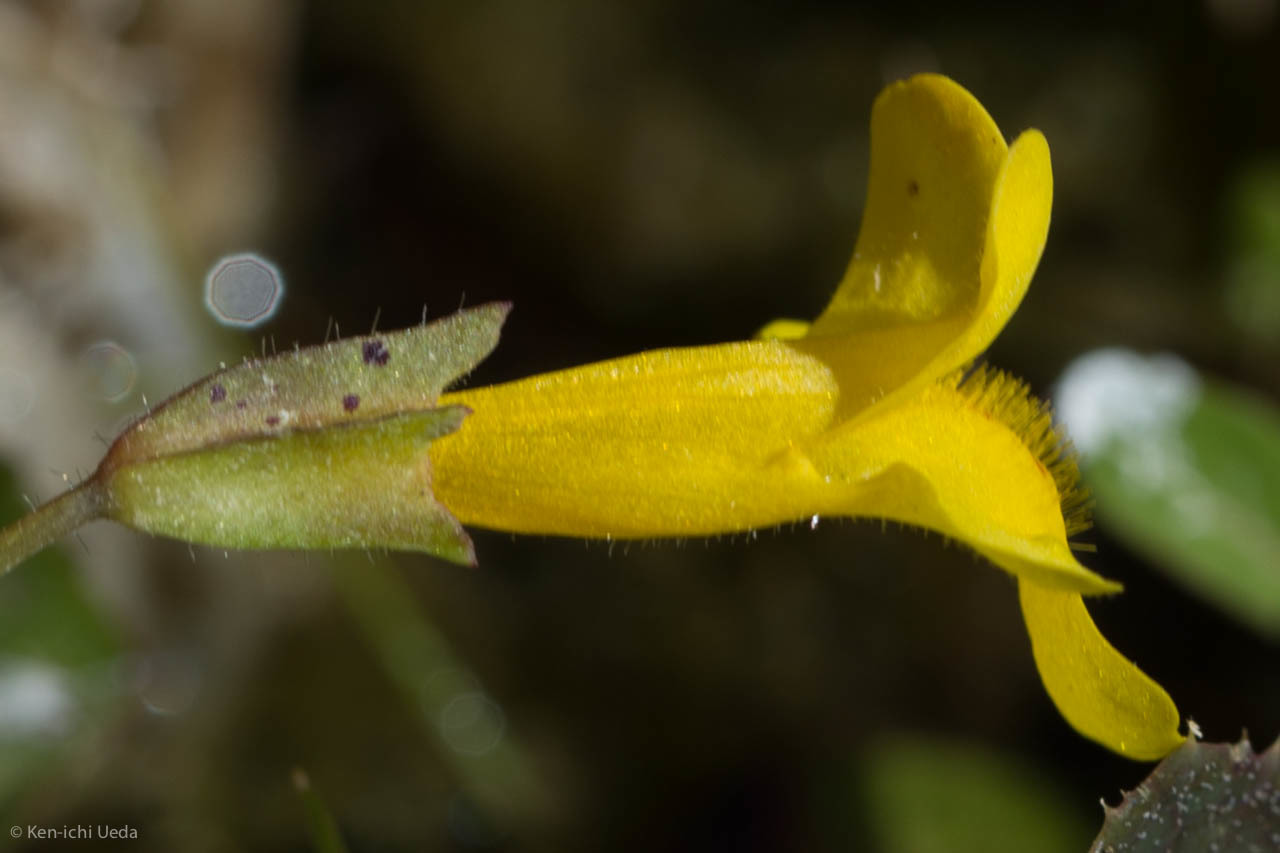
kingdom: Plantae
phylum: Tracheophyta
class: Magnoliopsida
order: Lamiales
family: Phrymaceae
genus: Erythranthe
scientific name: Erythranthe guttata
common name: Monkeyflower
